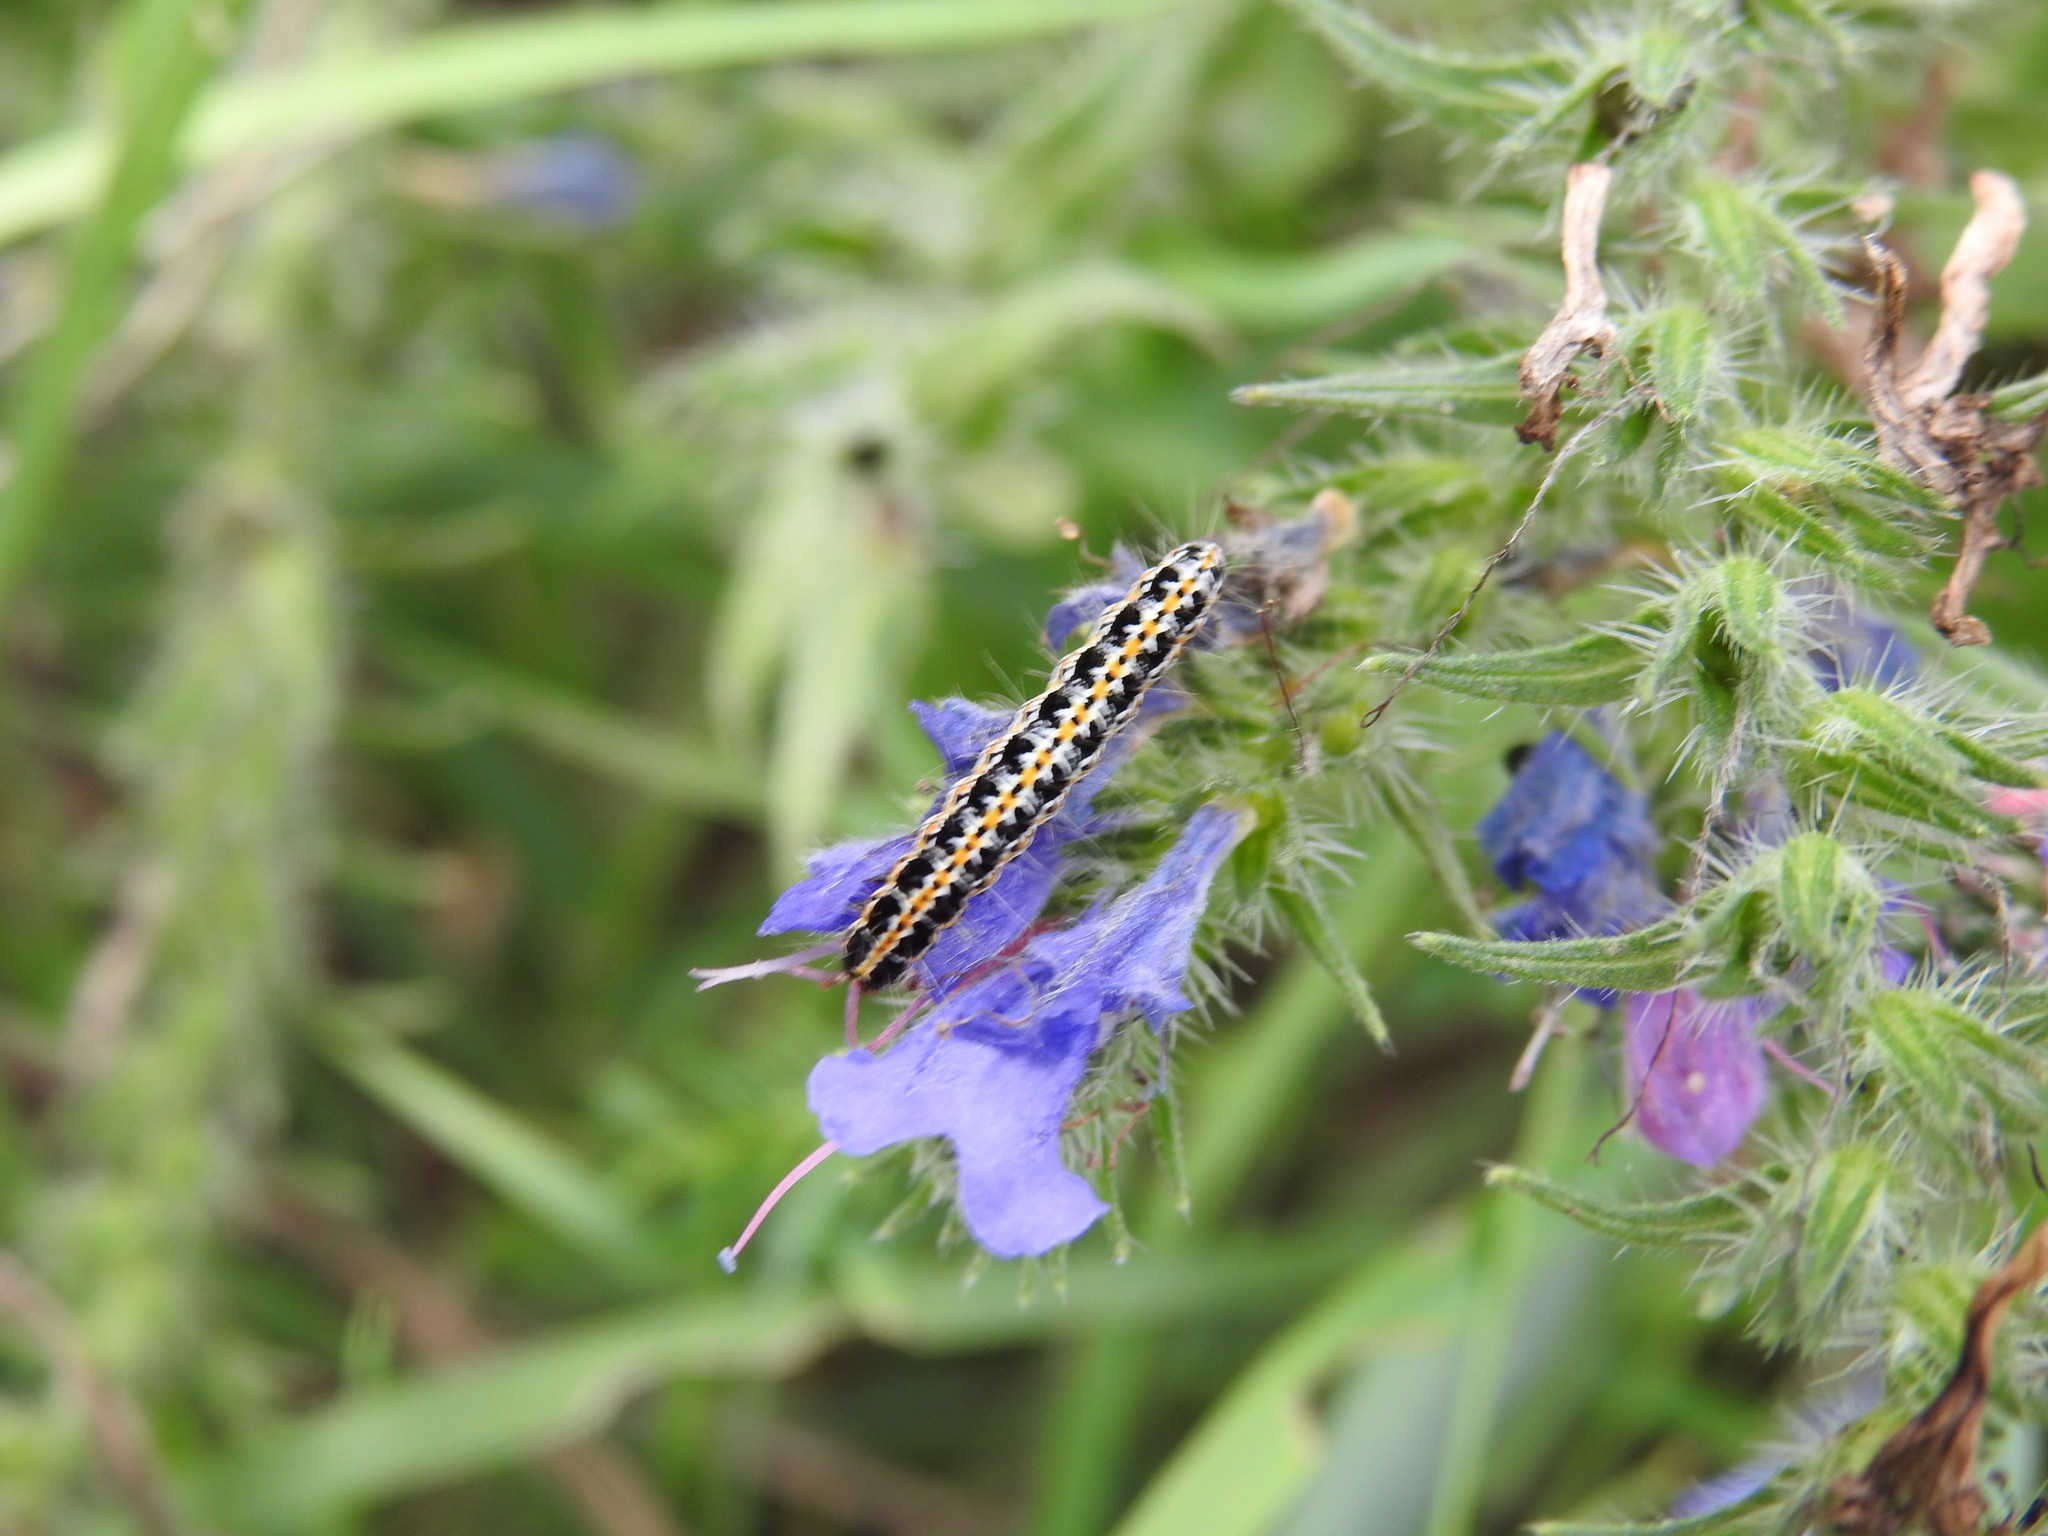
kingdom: Animalia
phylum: Arthropoda
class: Insecta
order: Lepidoptera
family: Ethmiidae
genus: Ethmia
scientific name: Ethmia bipunctella
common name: Bordered ermel
